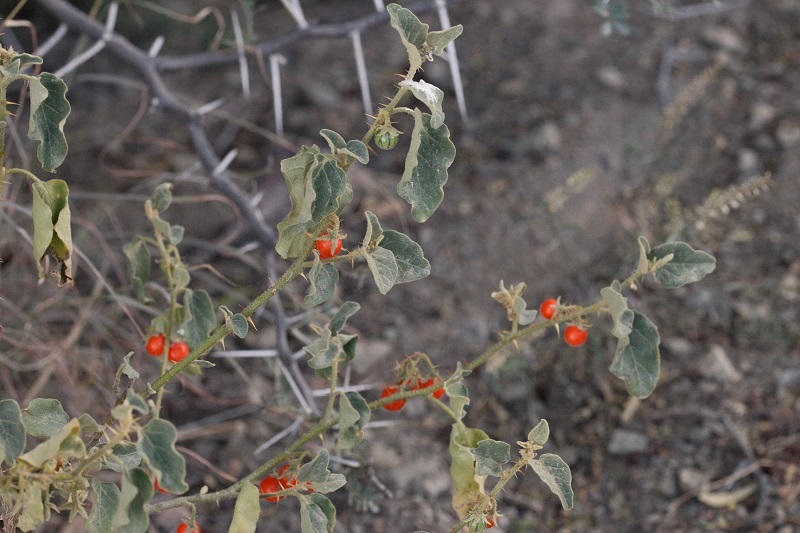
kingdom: Plantae
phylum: Tracheophyta
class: Magnoliopsida
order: Solanales
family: Solanaceae
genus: Solanum
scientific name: Solanum tomentosum
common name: Wild aubergine
